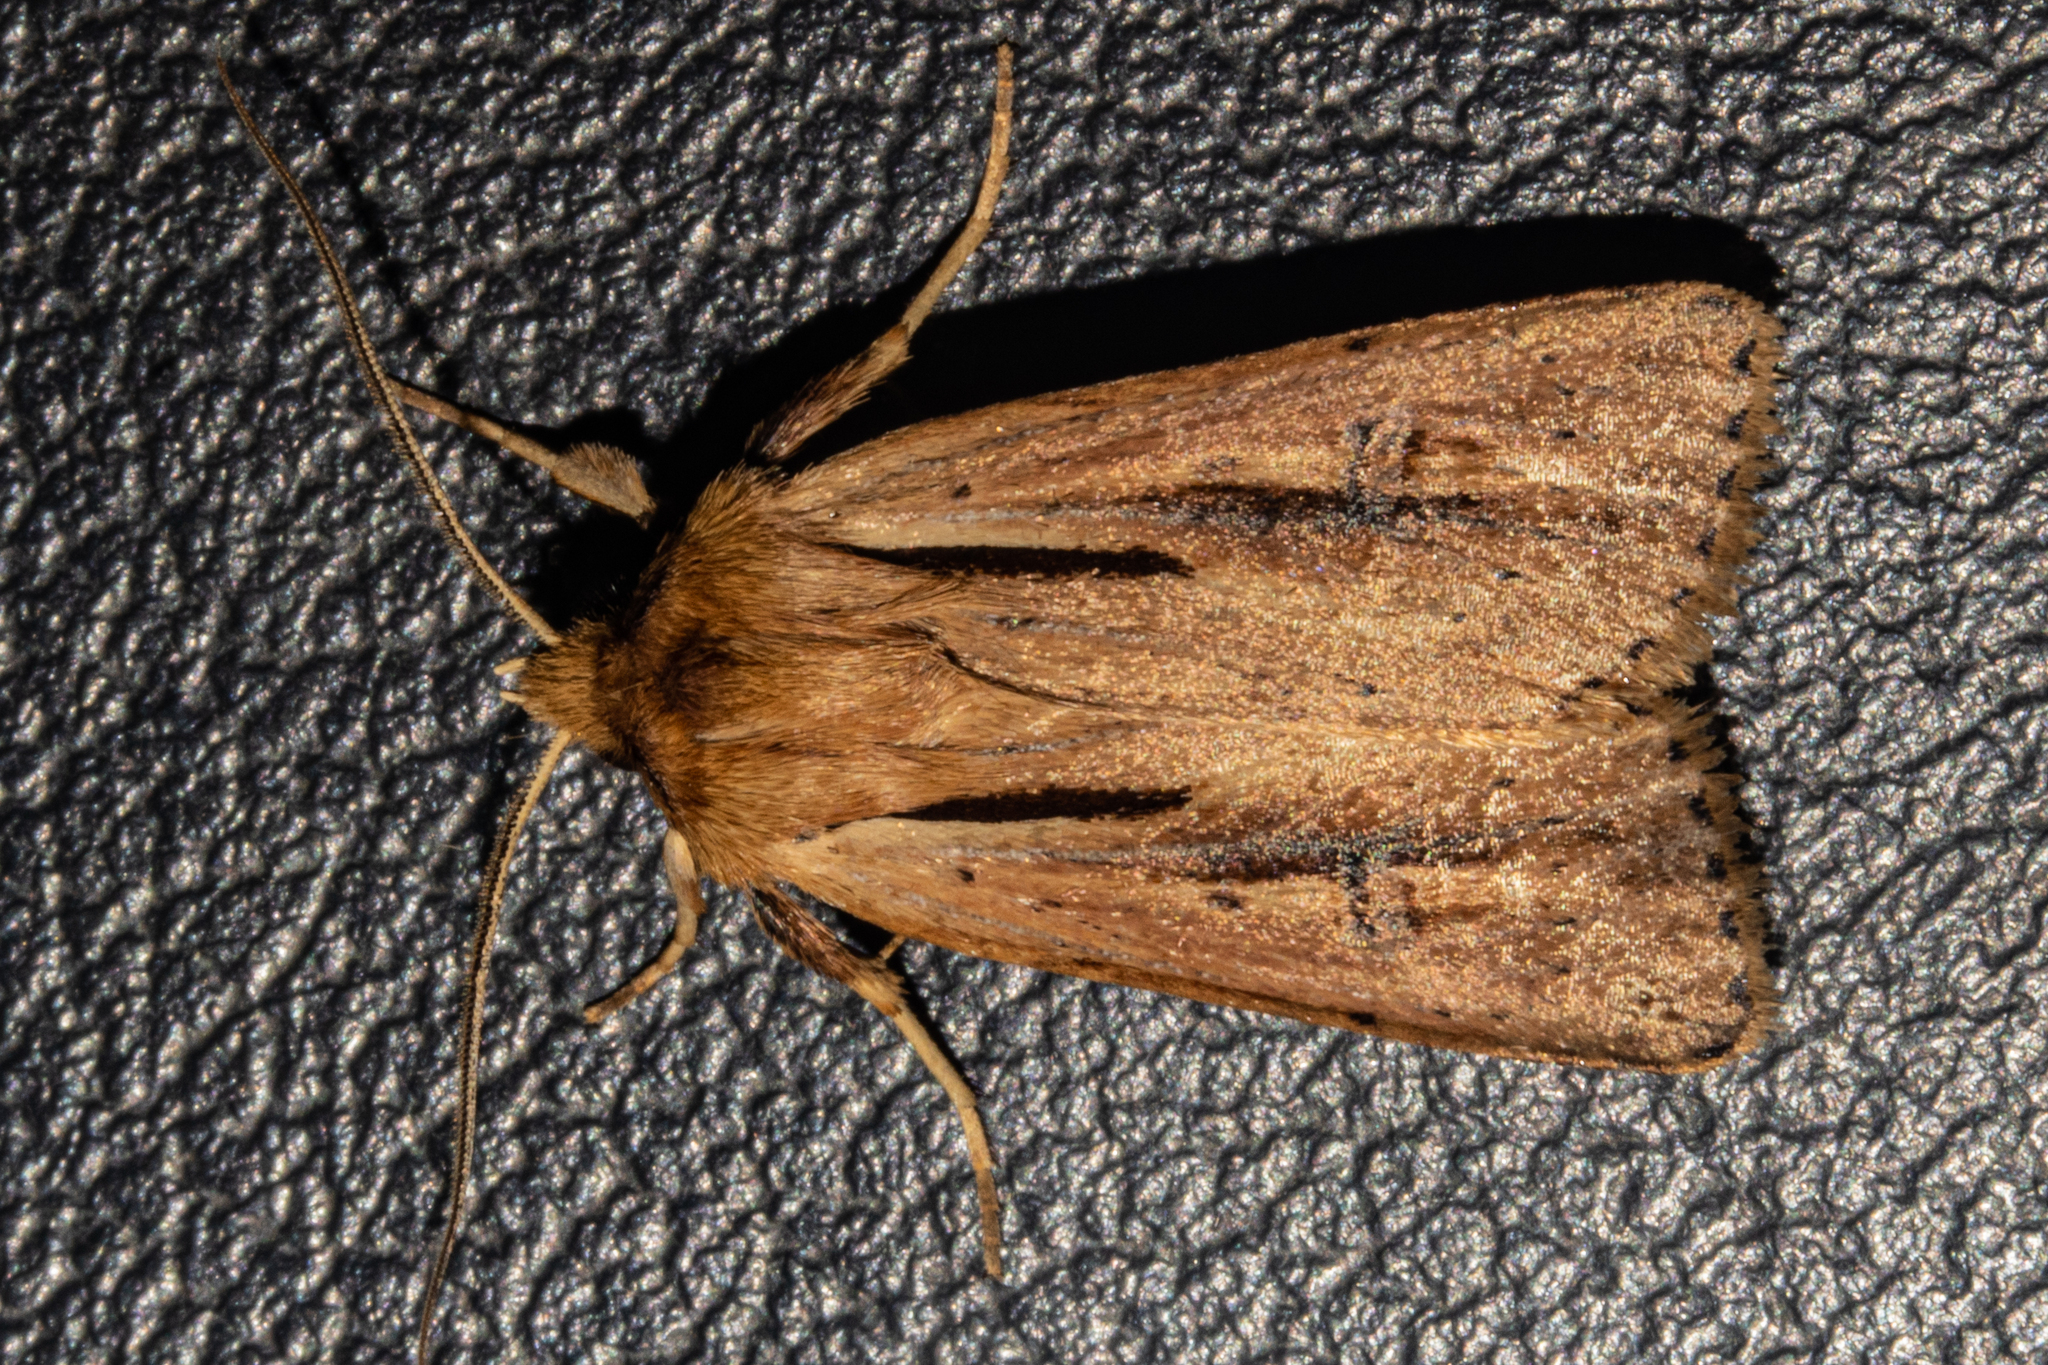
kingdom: Animalia
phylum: Arthropoda
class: Insecta
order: Lepidoptera
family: Noctuidae
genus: Ichneutica
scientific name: Ichneutica propria
